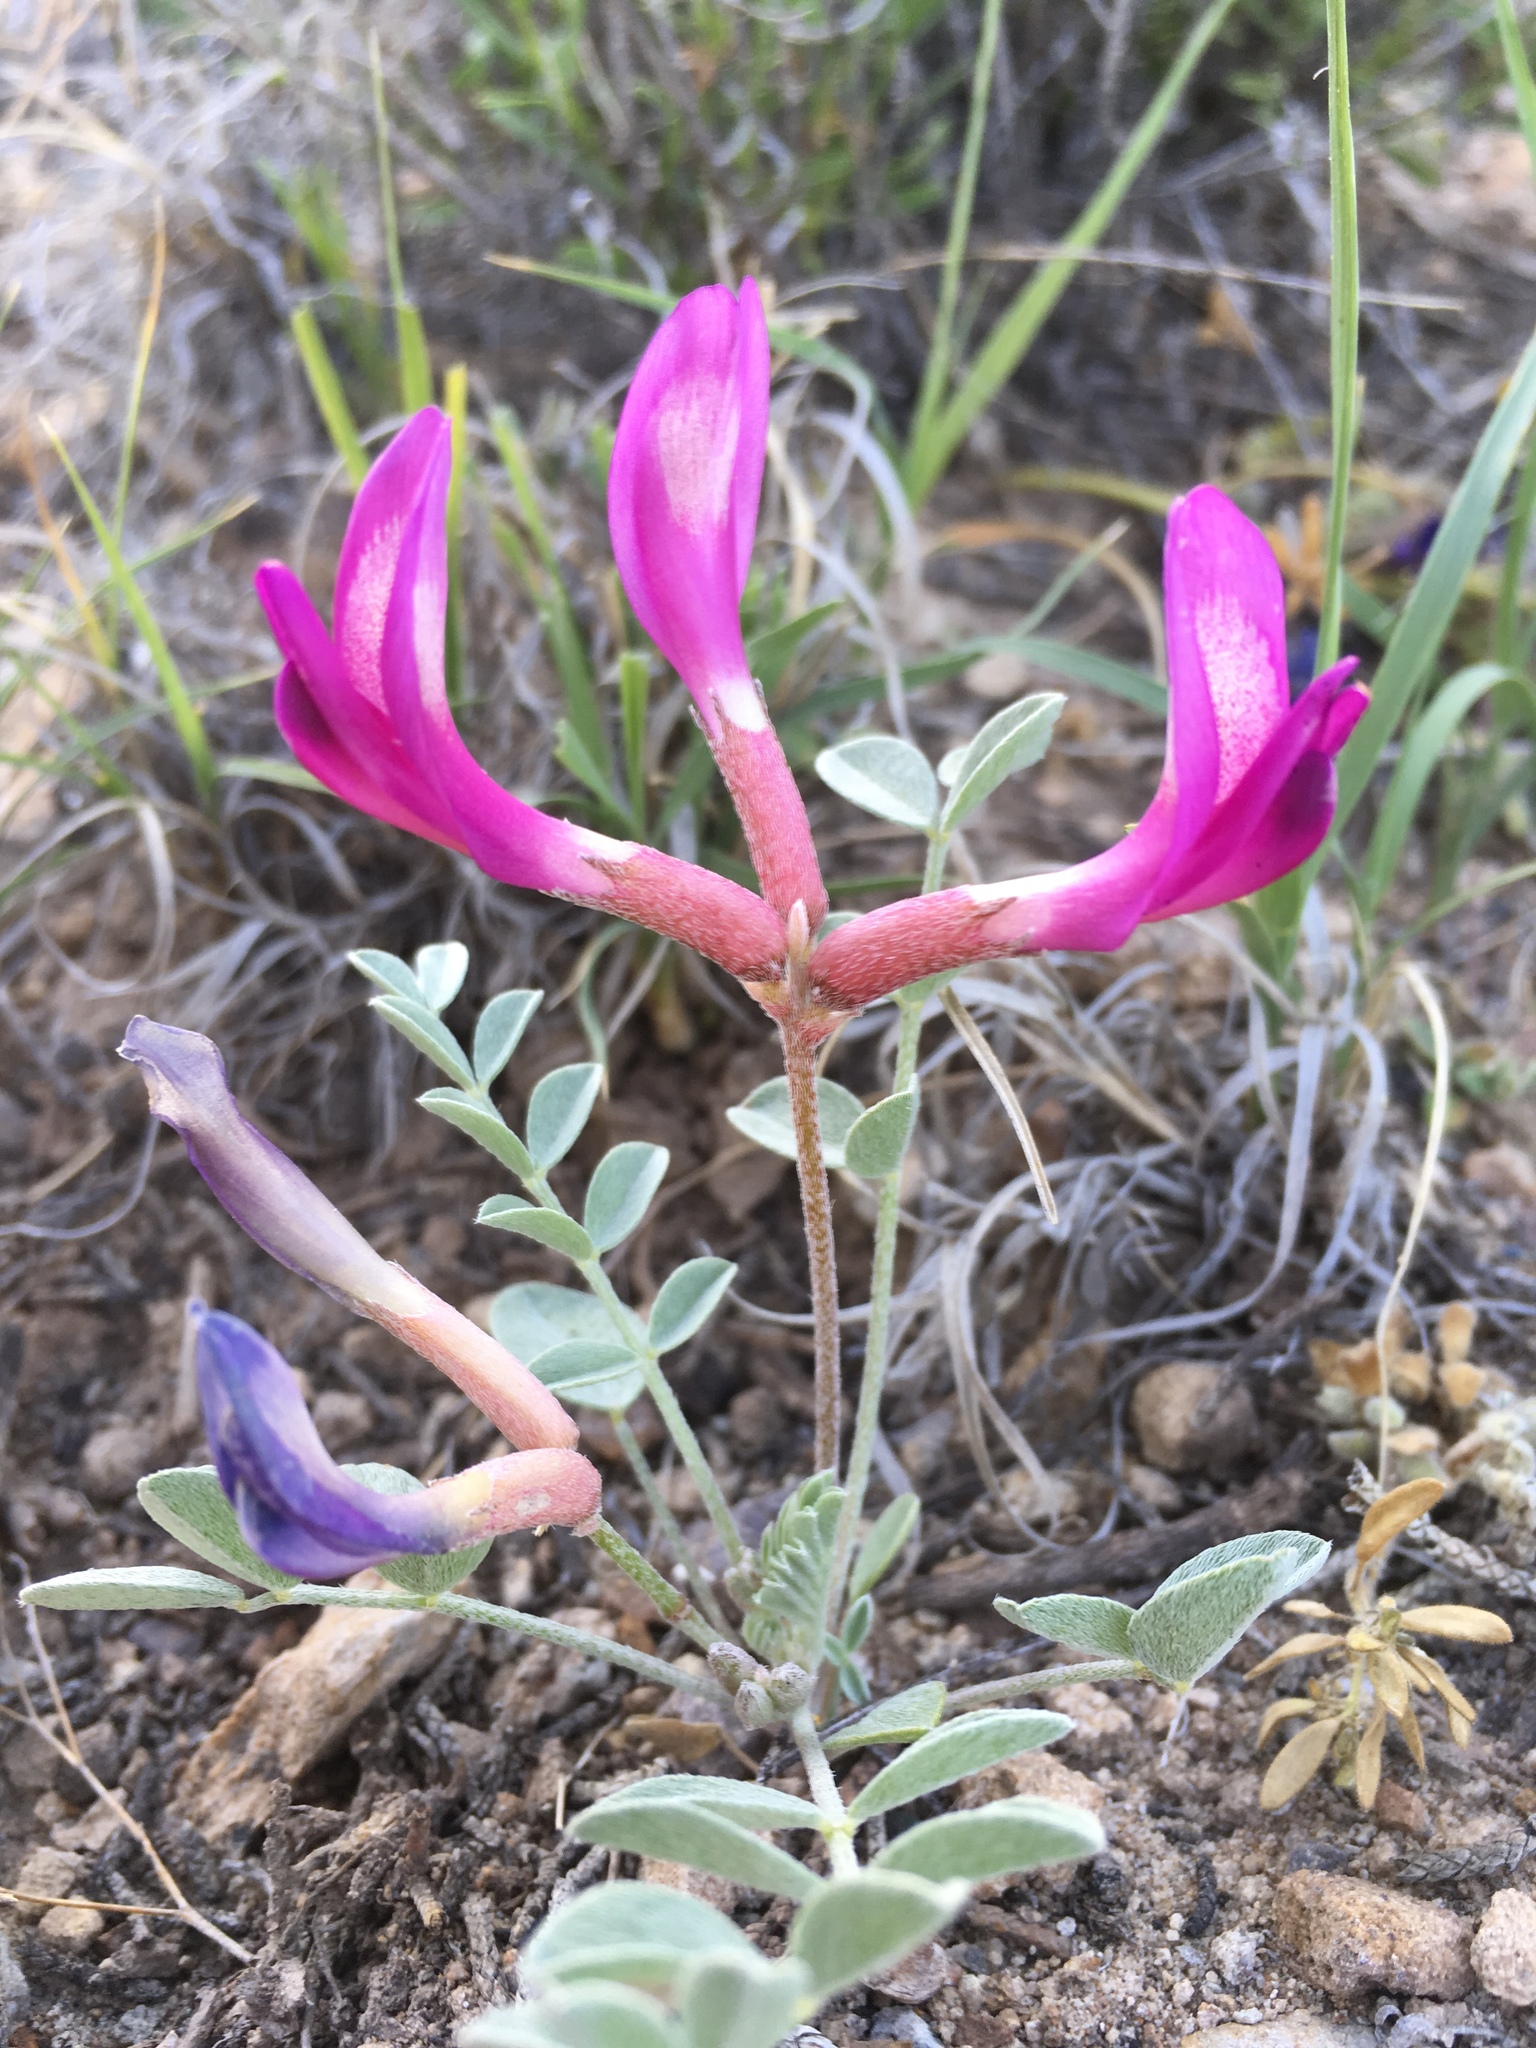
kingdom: Plantae
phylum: Tracheophyta
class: Magnoliopsida
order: Fabales
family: Fabaceae
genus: Astragalus
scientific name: Astragalus amphioxys
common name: Crescent milk-vetch
